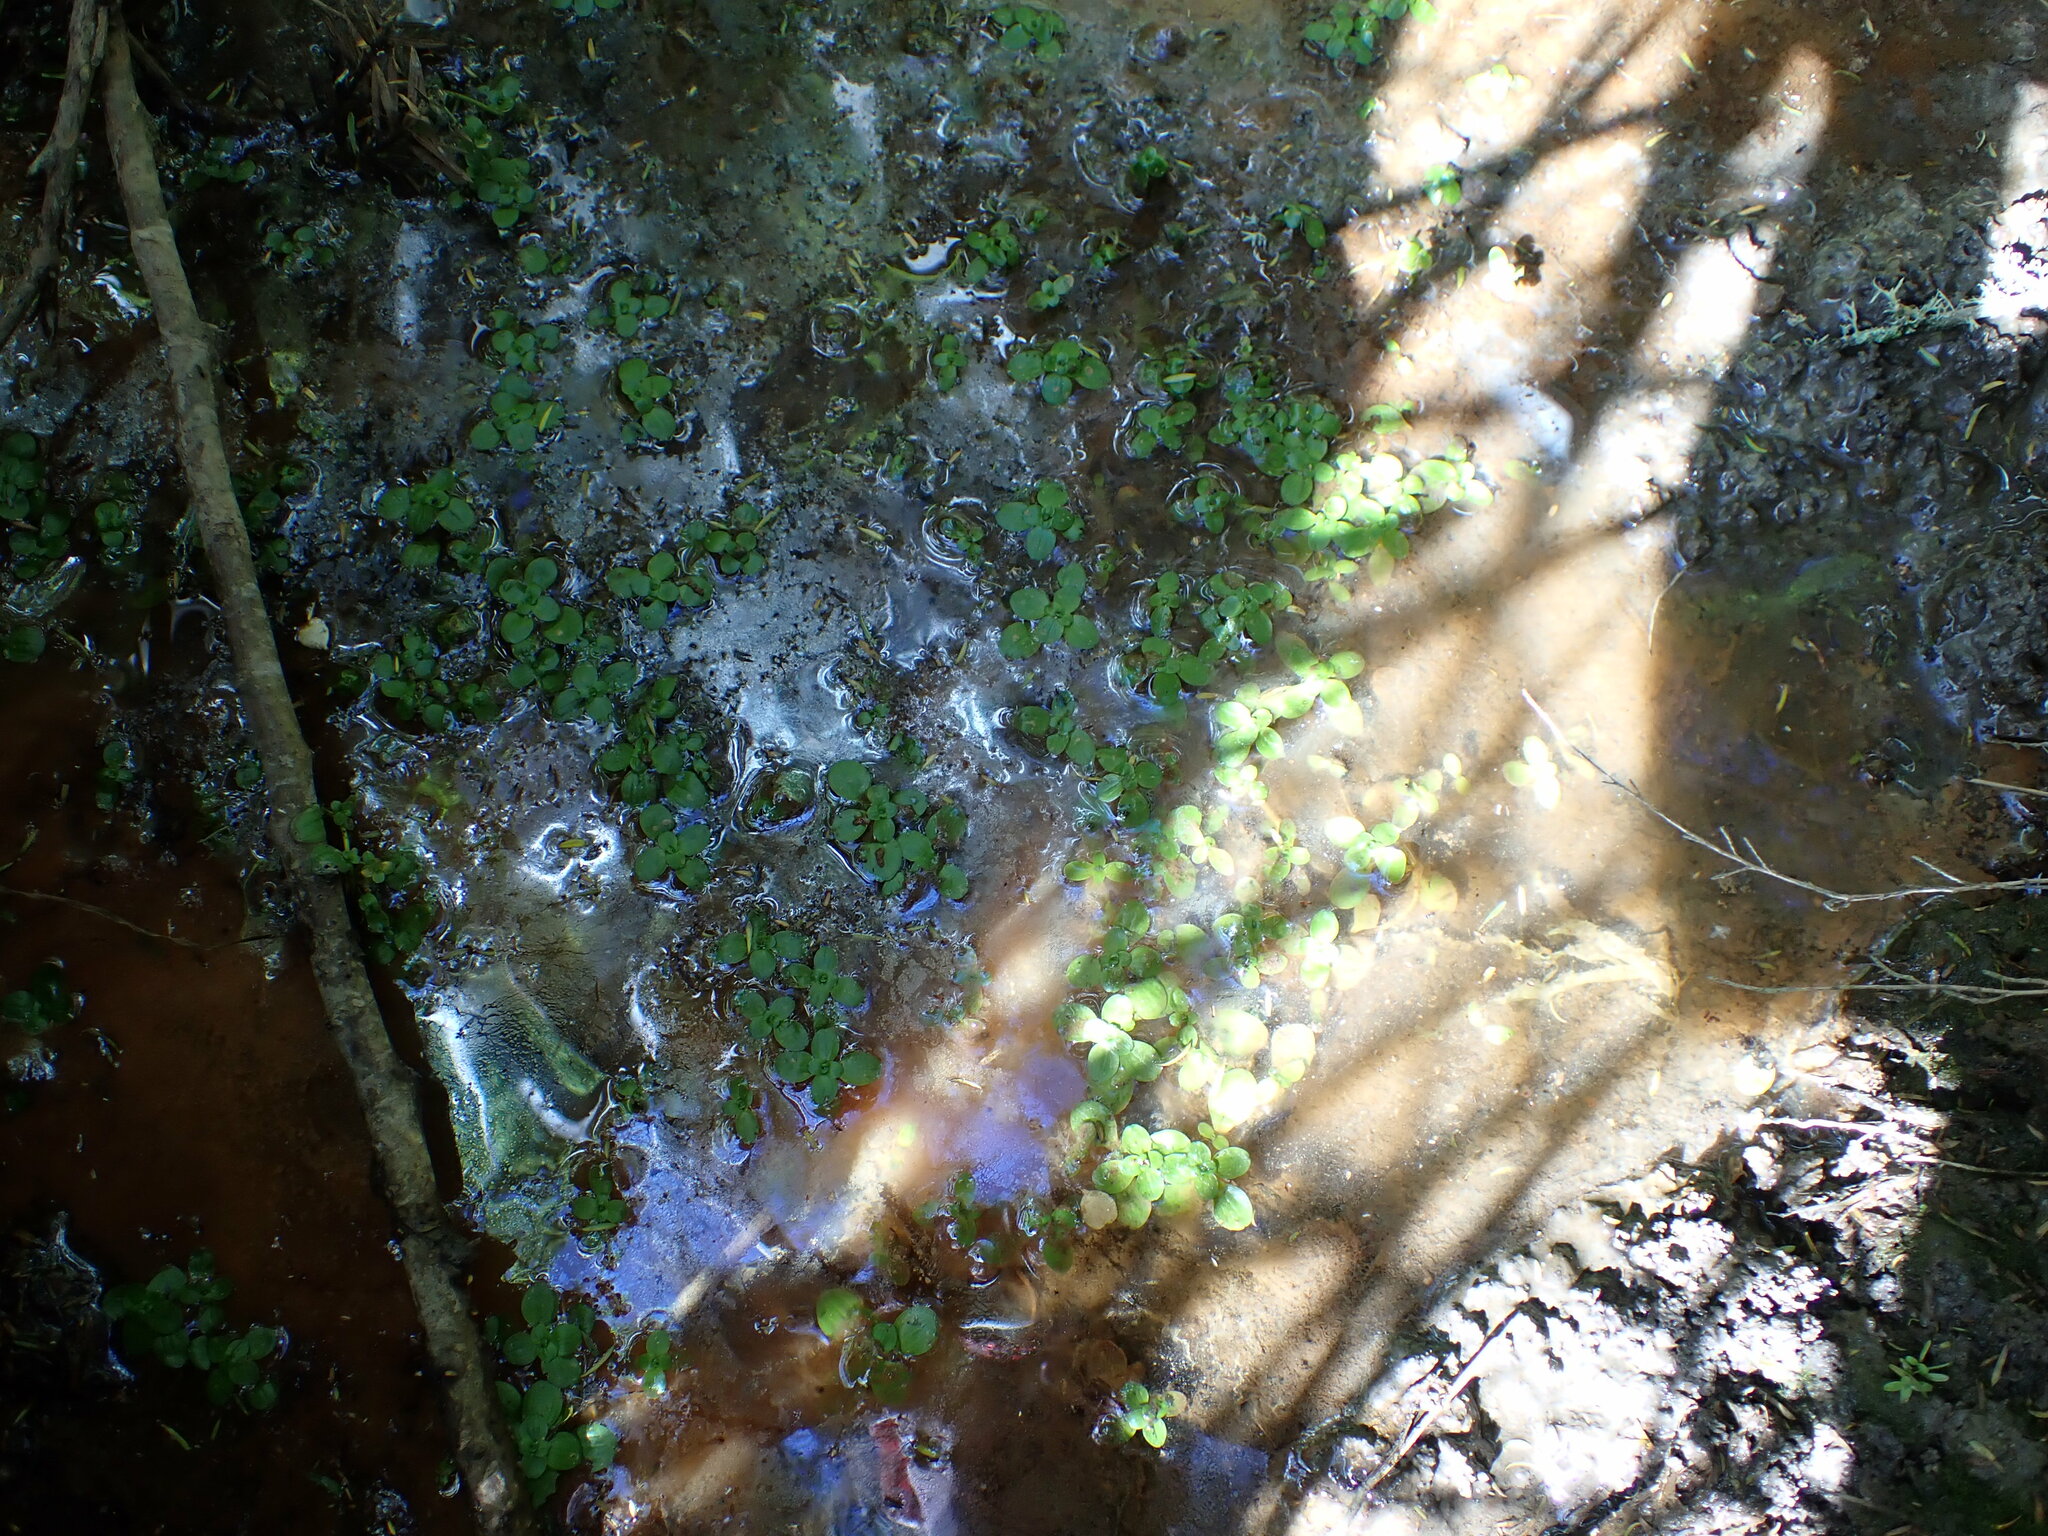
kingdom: Plantae
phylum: Tracheophyta
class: Magnoliopsida
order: Lamiales
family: Plantaginaceae
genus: Callitriche
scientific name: Callitriche stagnalis
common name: Common water-starwort
